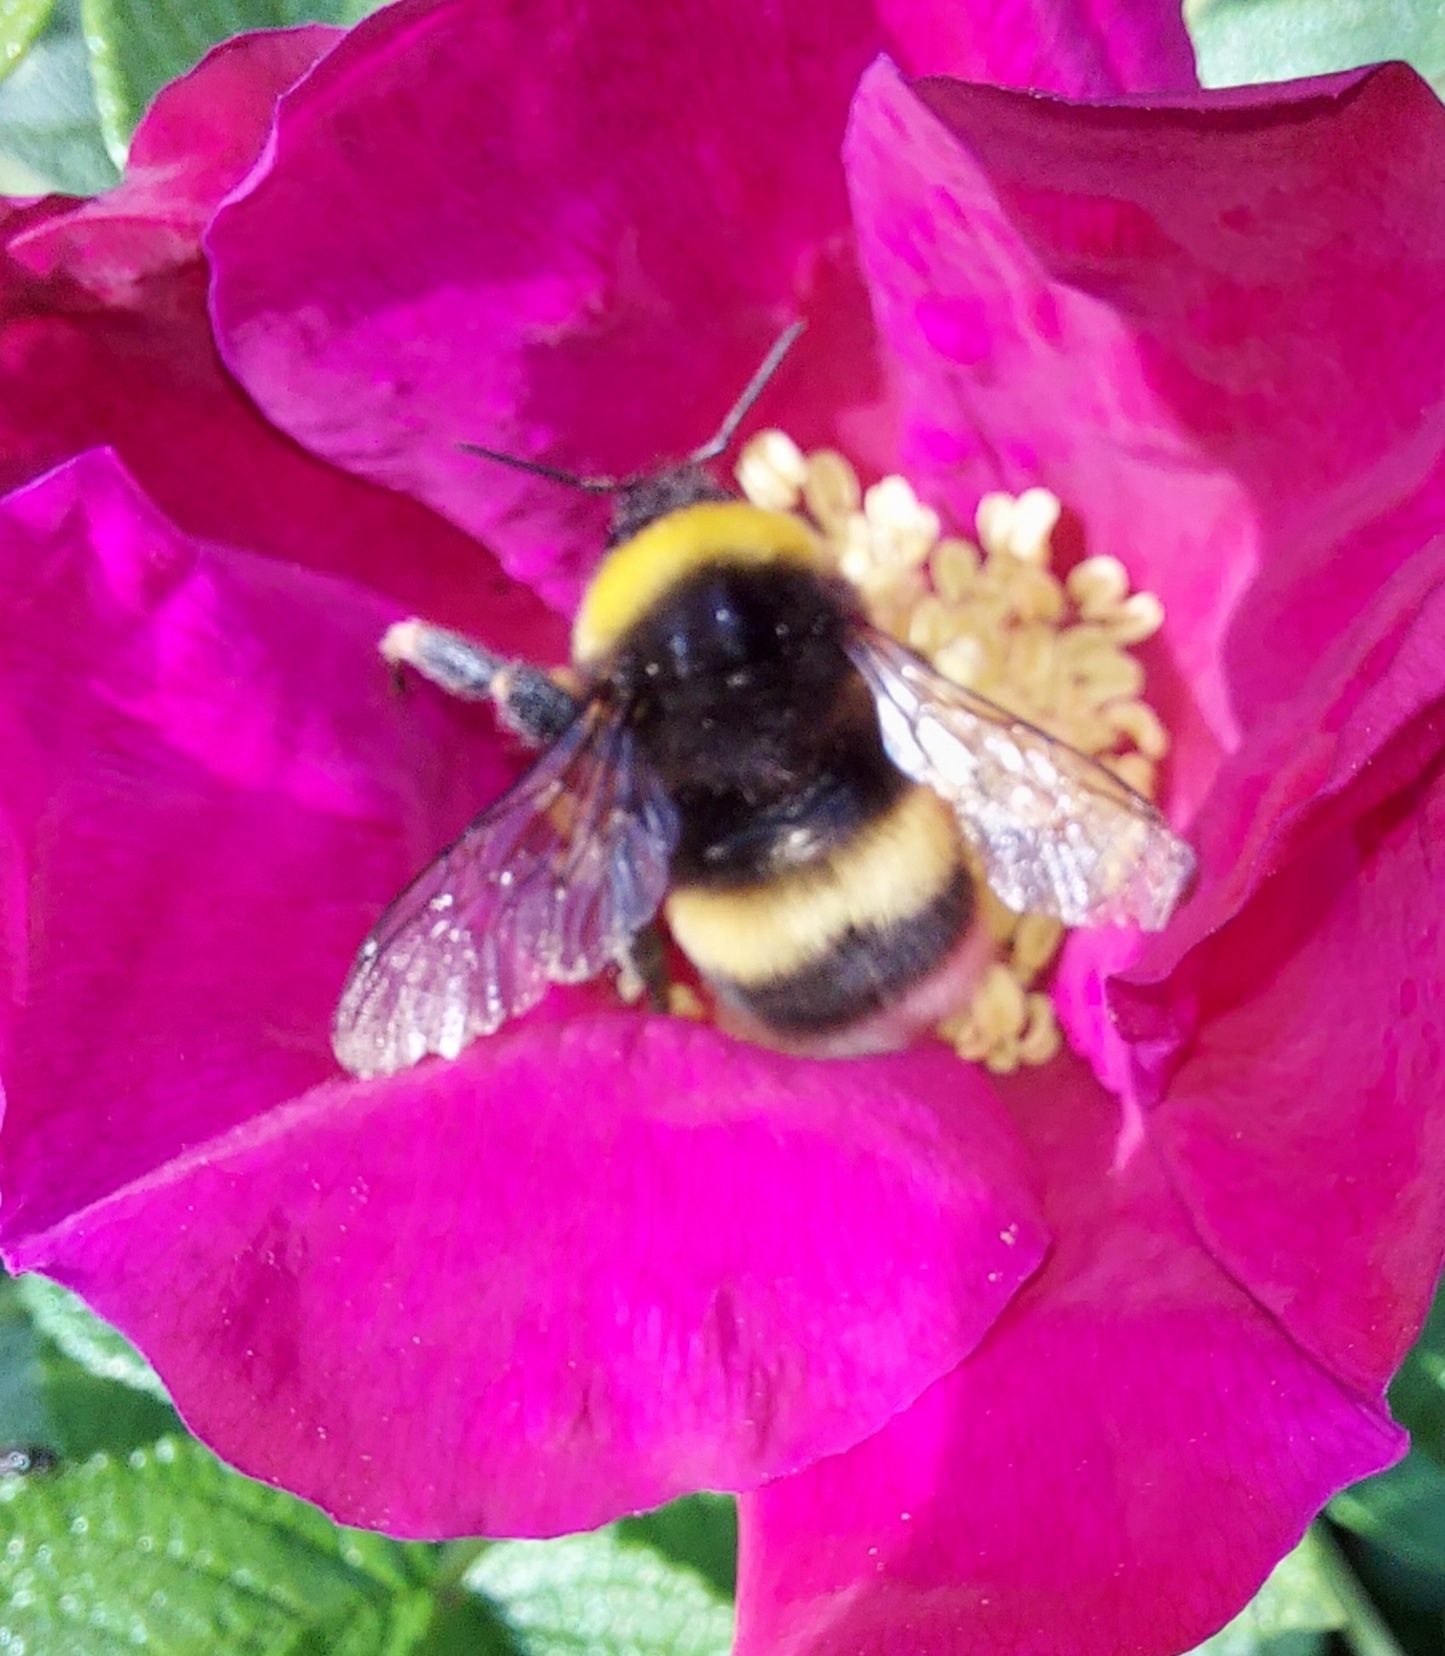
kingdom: Animalia
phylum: Arthropoda
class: Insecta
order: Hymenoptera
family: Apidae
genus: Bombus
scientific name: Bombus lucorum
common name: White-tailed bumblebee
